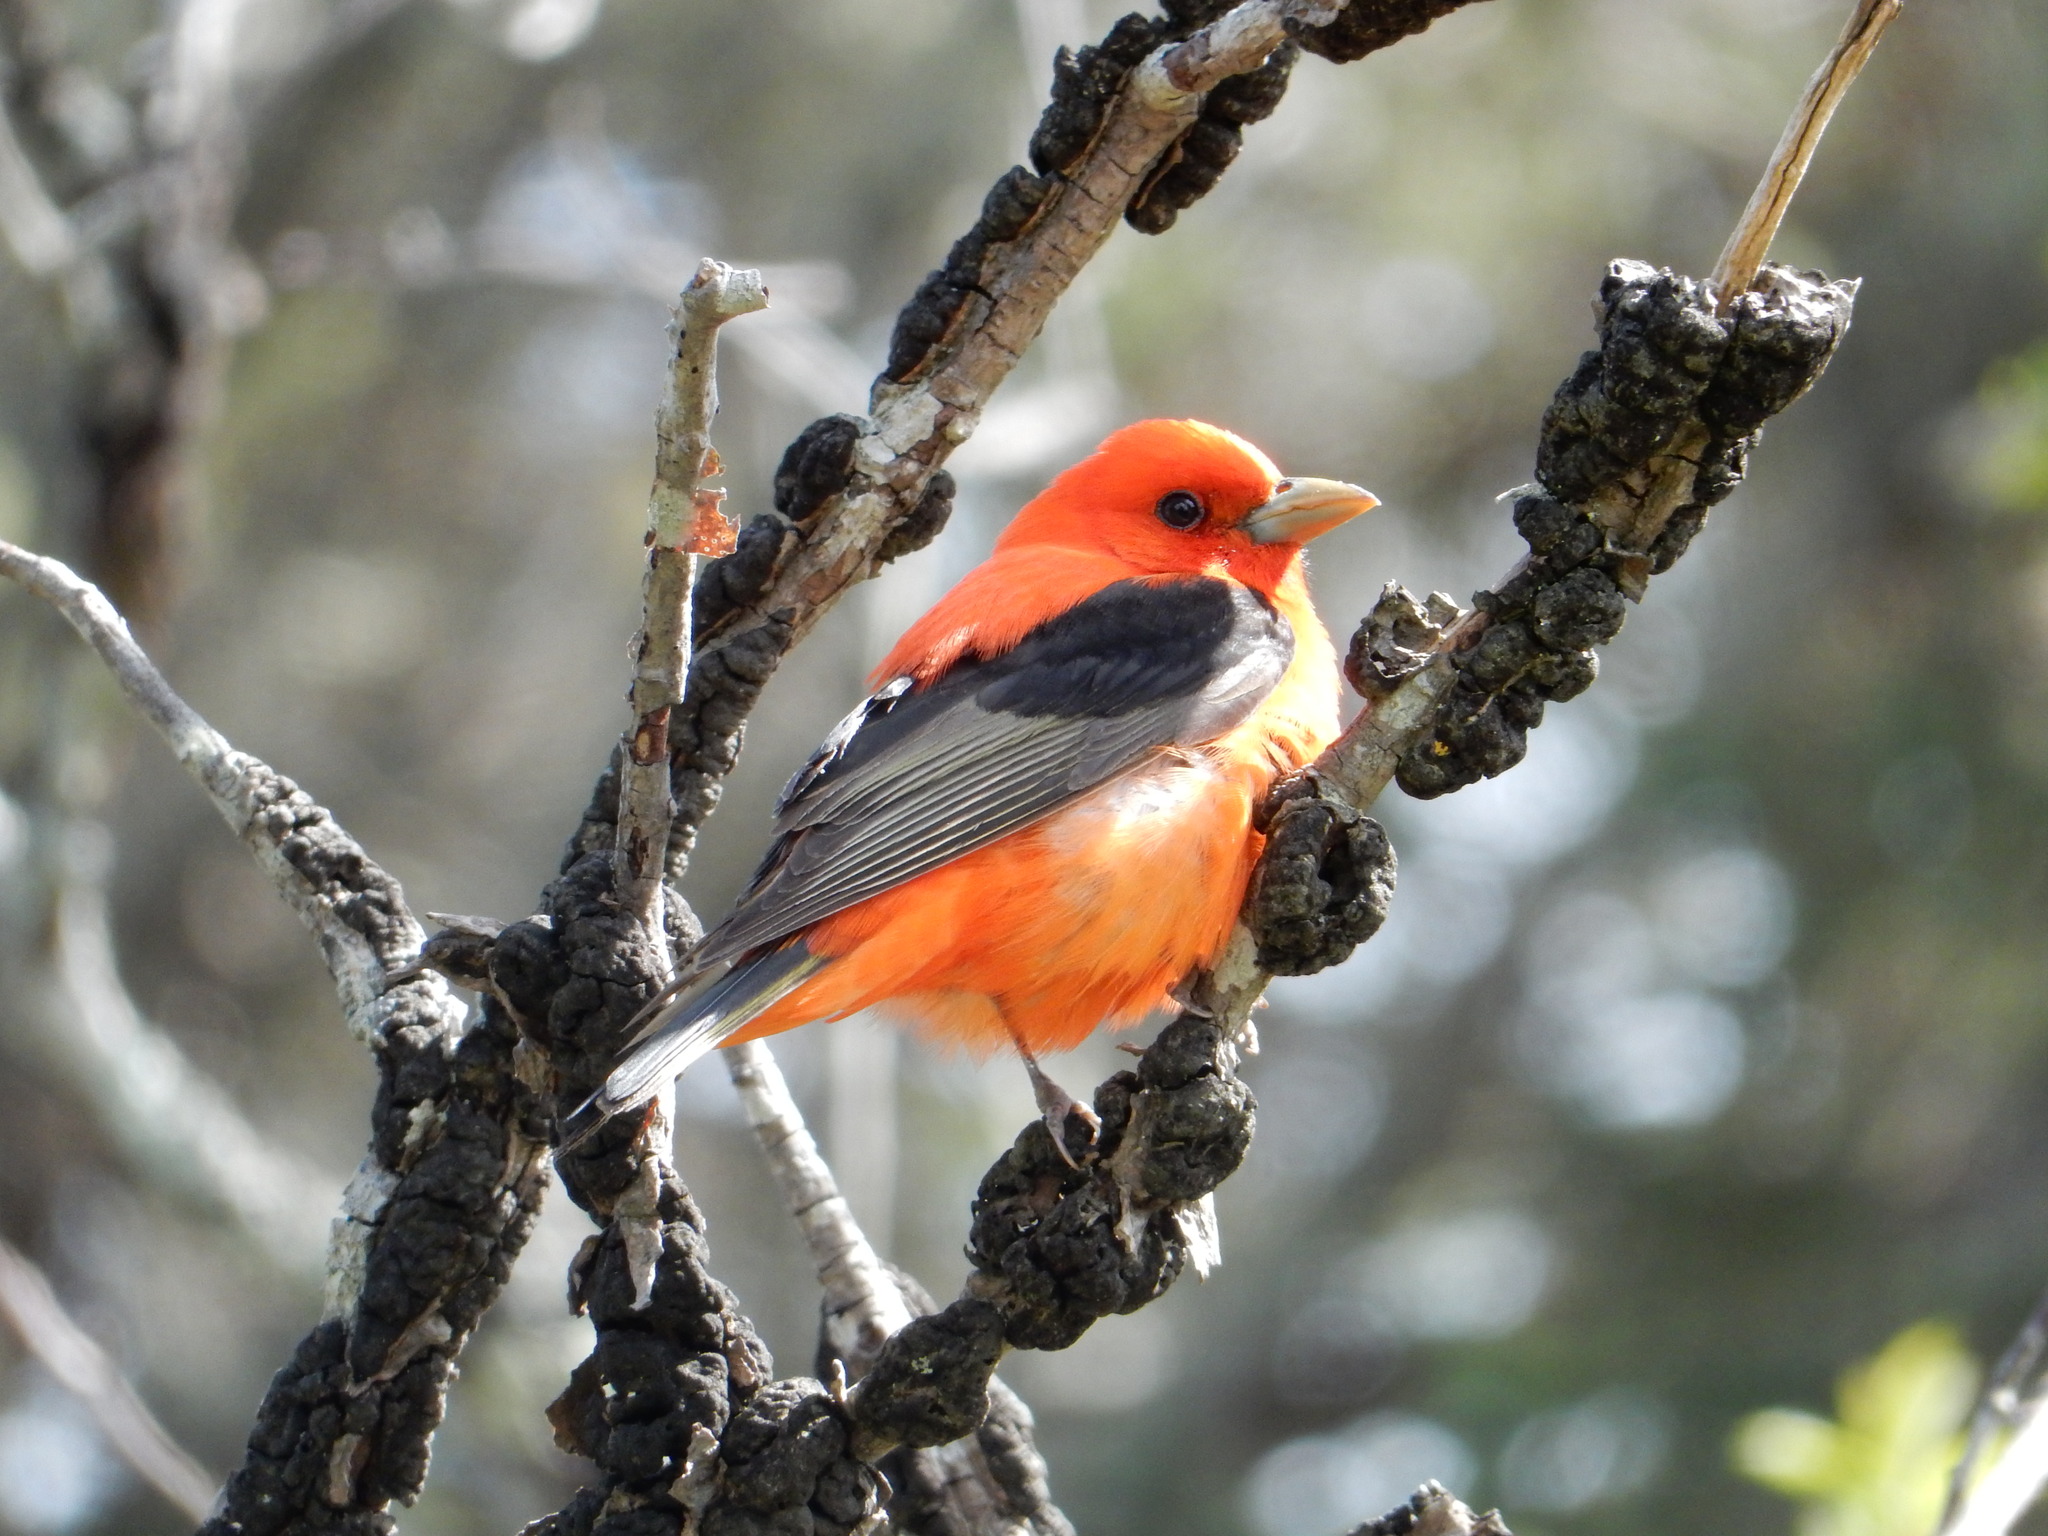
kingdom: Animalia
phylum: Chordata
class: Aves
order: Passeriformes
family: Cardinalidae
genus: Piranga
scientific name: Piranga olivacea
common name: Scarlet tanager
